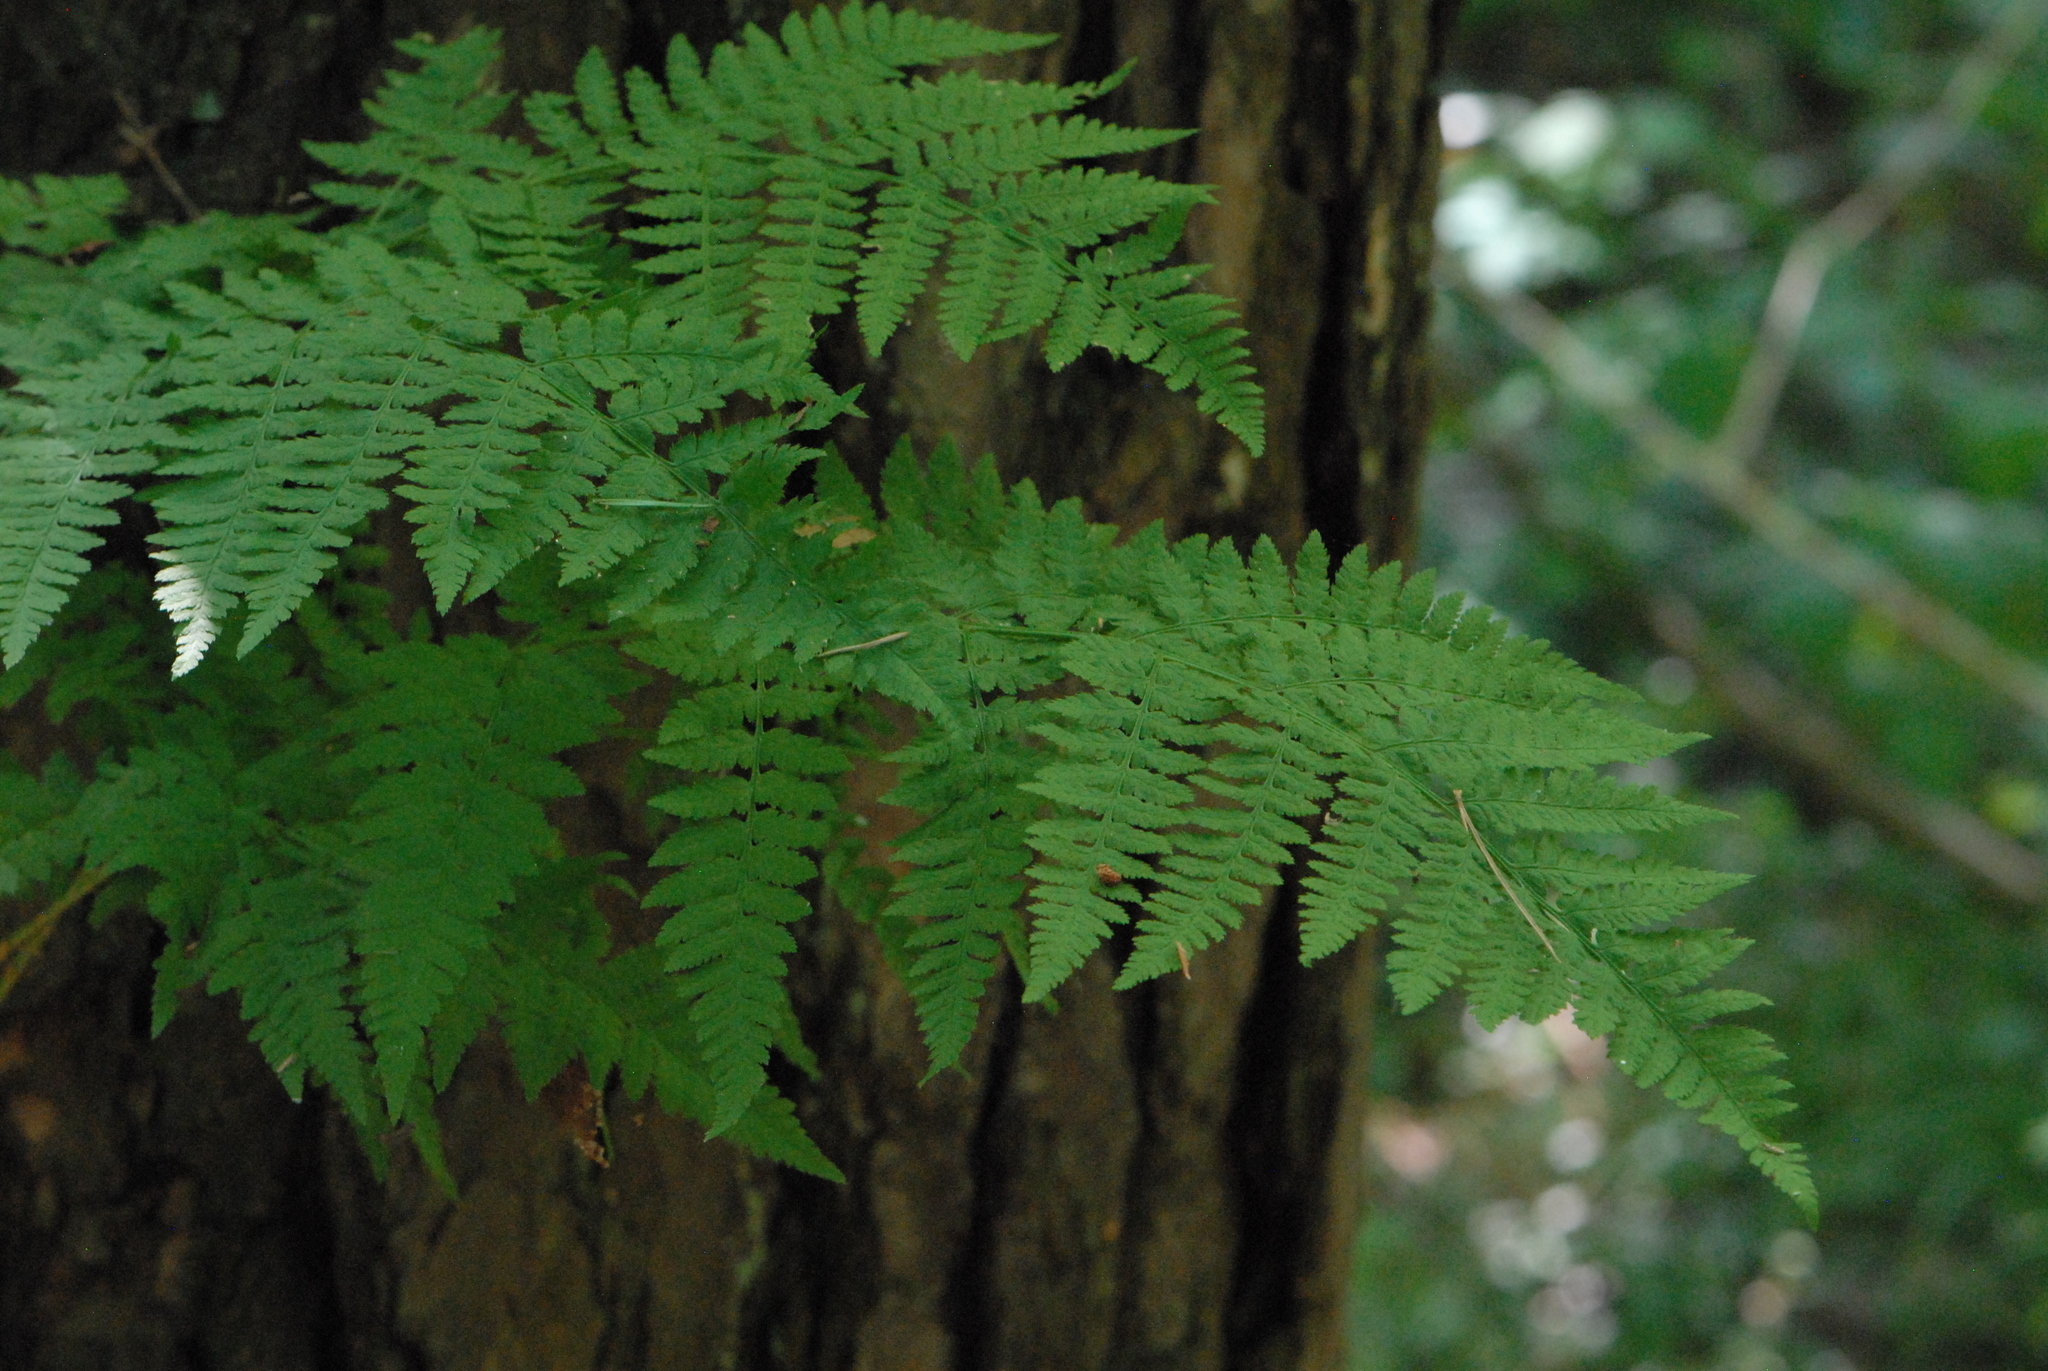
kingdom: Plantae
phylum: Tracheophyta
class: Polypodiopsida
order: Polypodiales
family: Dryopteridaceae
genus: Dryopteris
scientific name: Dryopteris carthusiana
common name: Narrow buckler-fern
